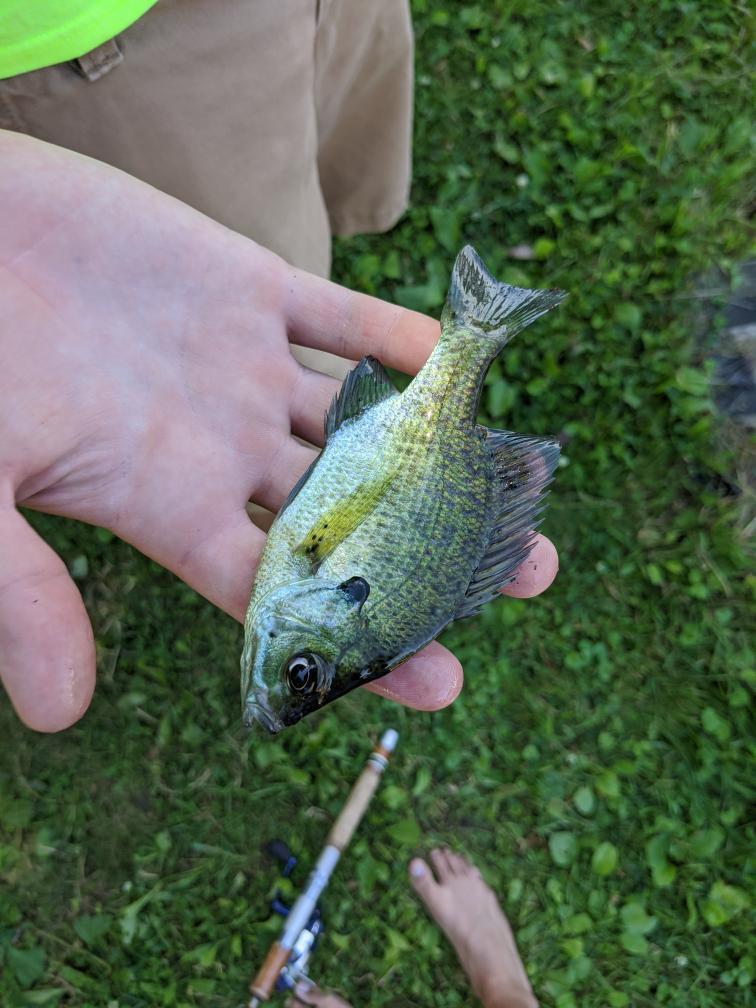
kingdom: Animalia
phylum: Chordata
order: Perciformes
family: Centrarchidae
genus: Lepomis
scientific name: Lepomis macrochirus
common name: Bluegill
